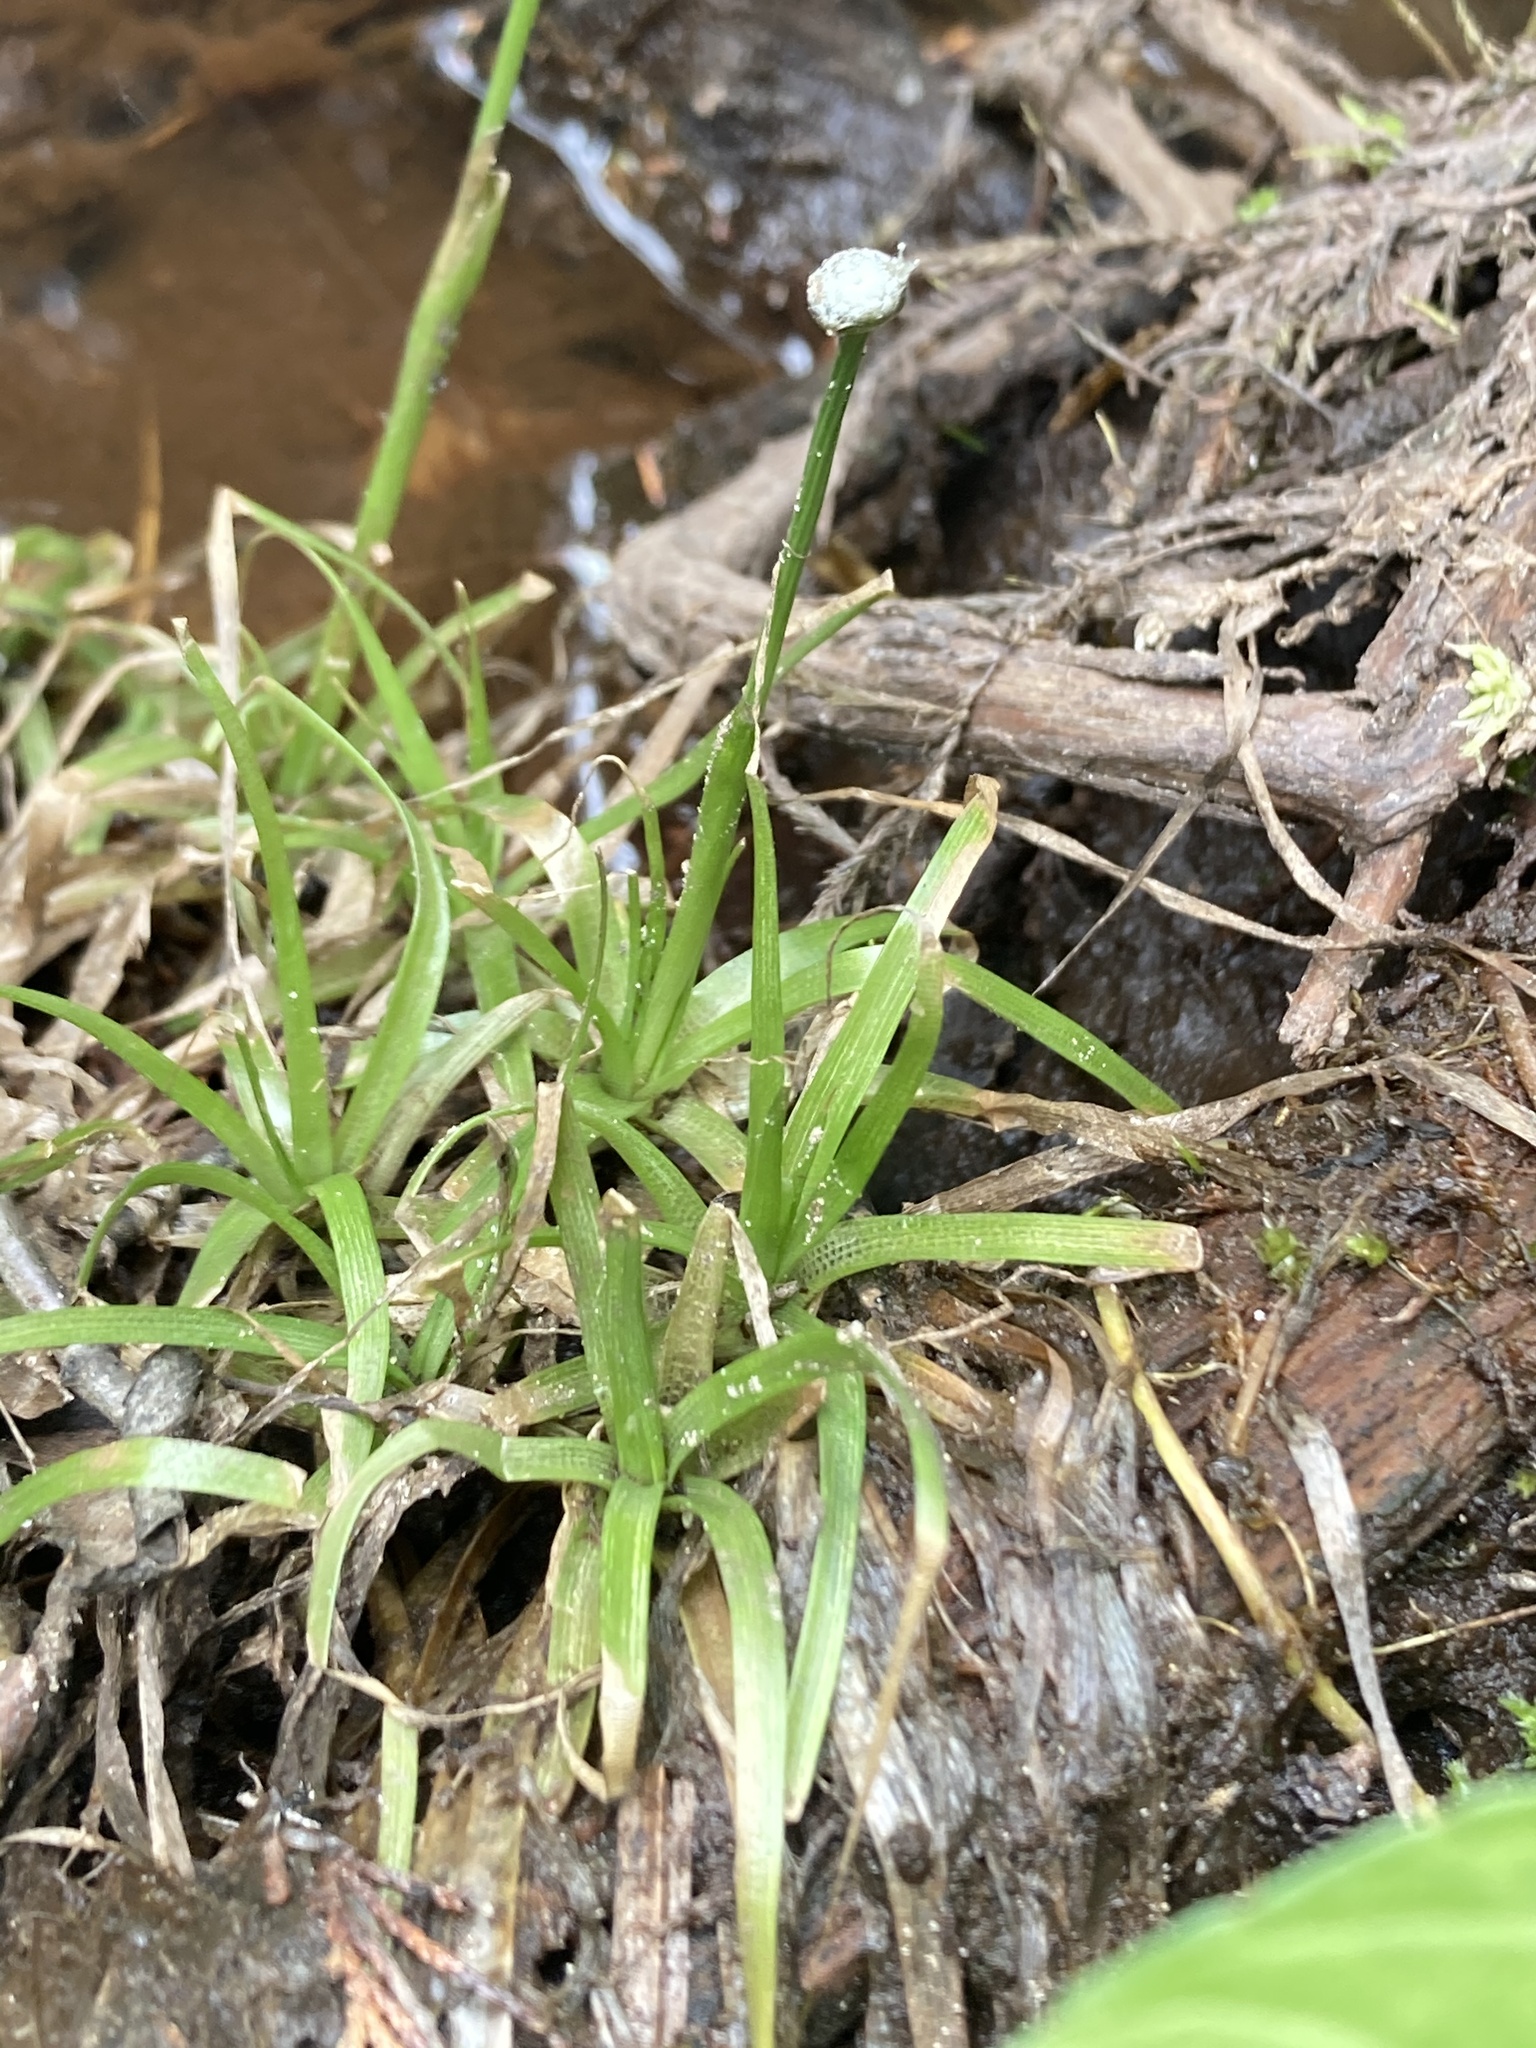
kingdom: Plantae
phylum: Tracheophyta
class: Liliopsida
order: Poales
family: Eriocaulaceae
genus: Eriocaulon
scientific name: Eriocaulon aquaticum
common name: Pipewort
